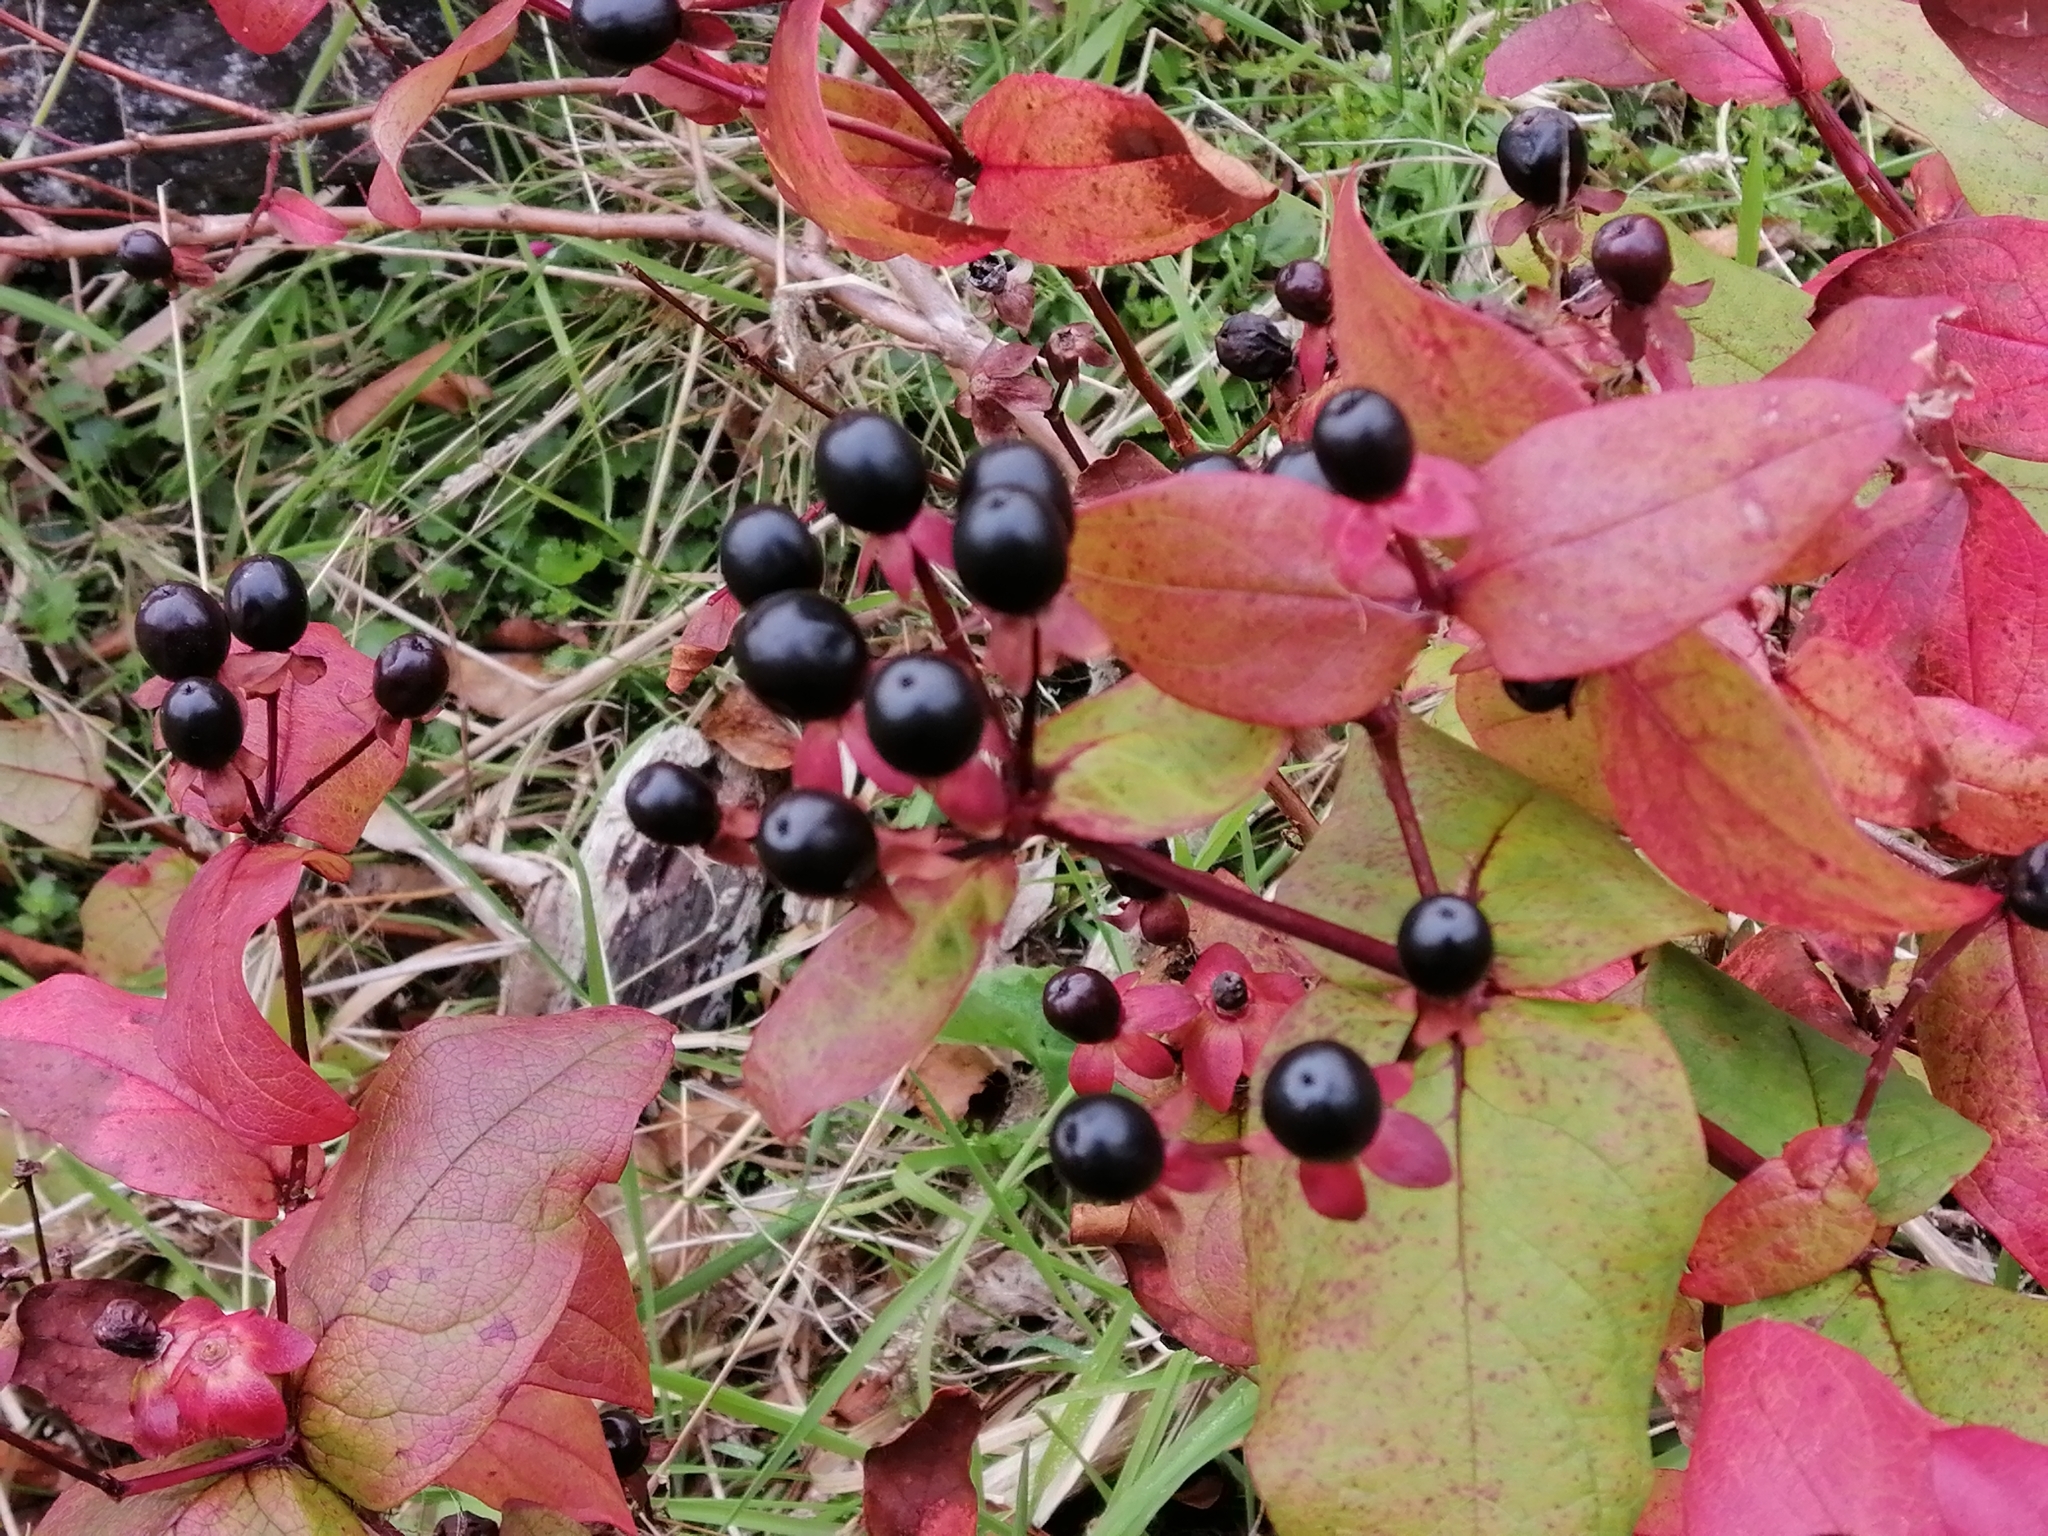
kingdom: Plantae
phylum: Tracheophyta
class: Magnoliopsida
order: Malpighiales
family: Hypericaceae
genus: Hypericum
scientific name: Hypericum androsaemum
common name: Sweet-amber
